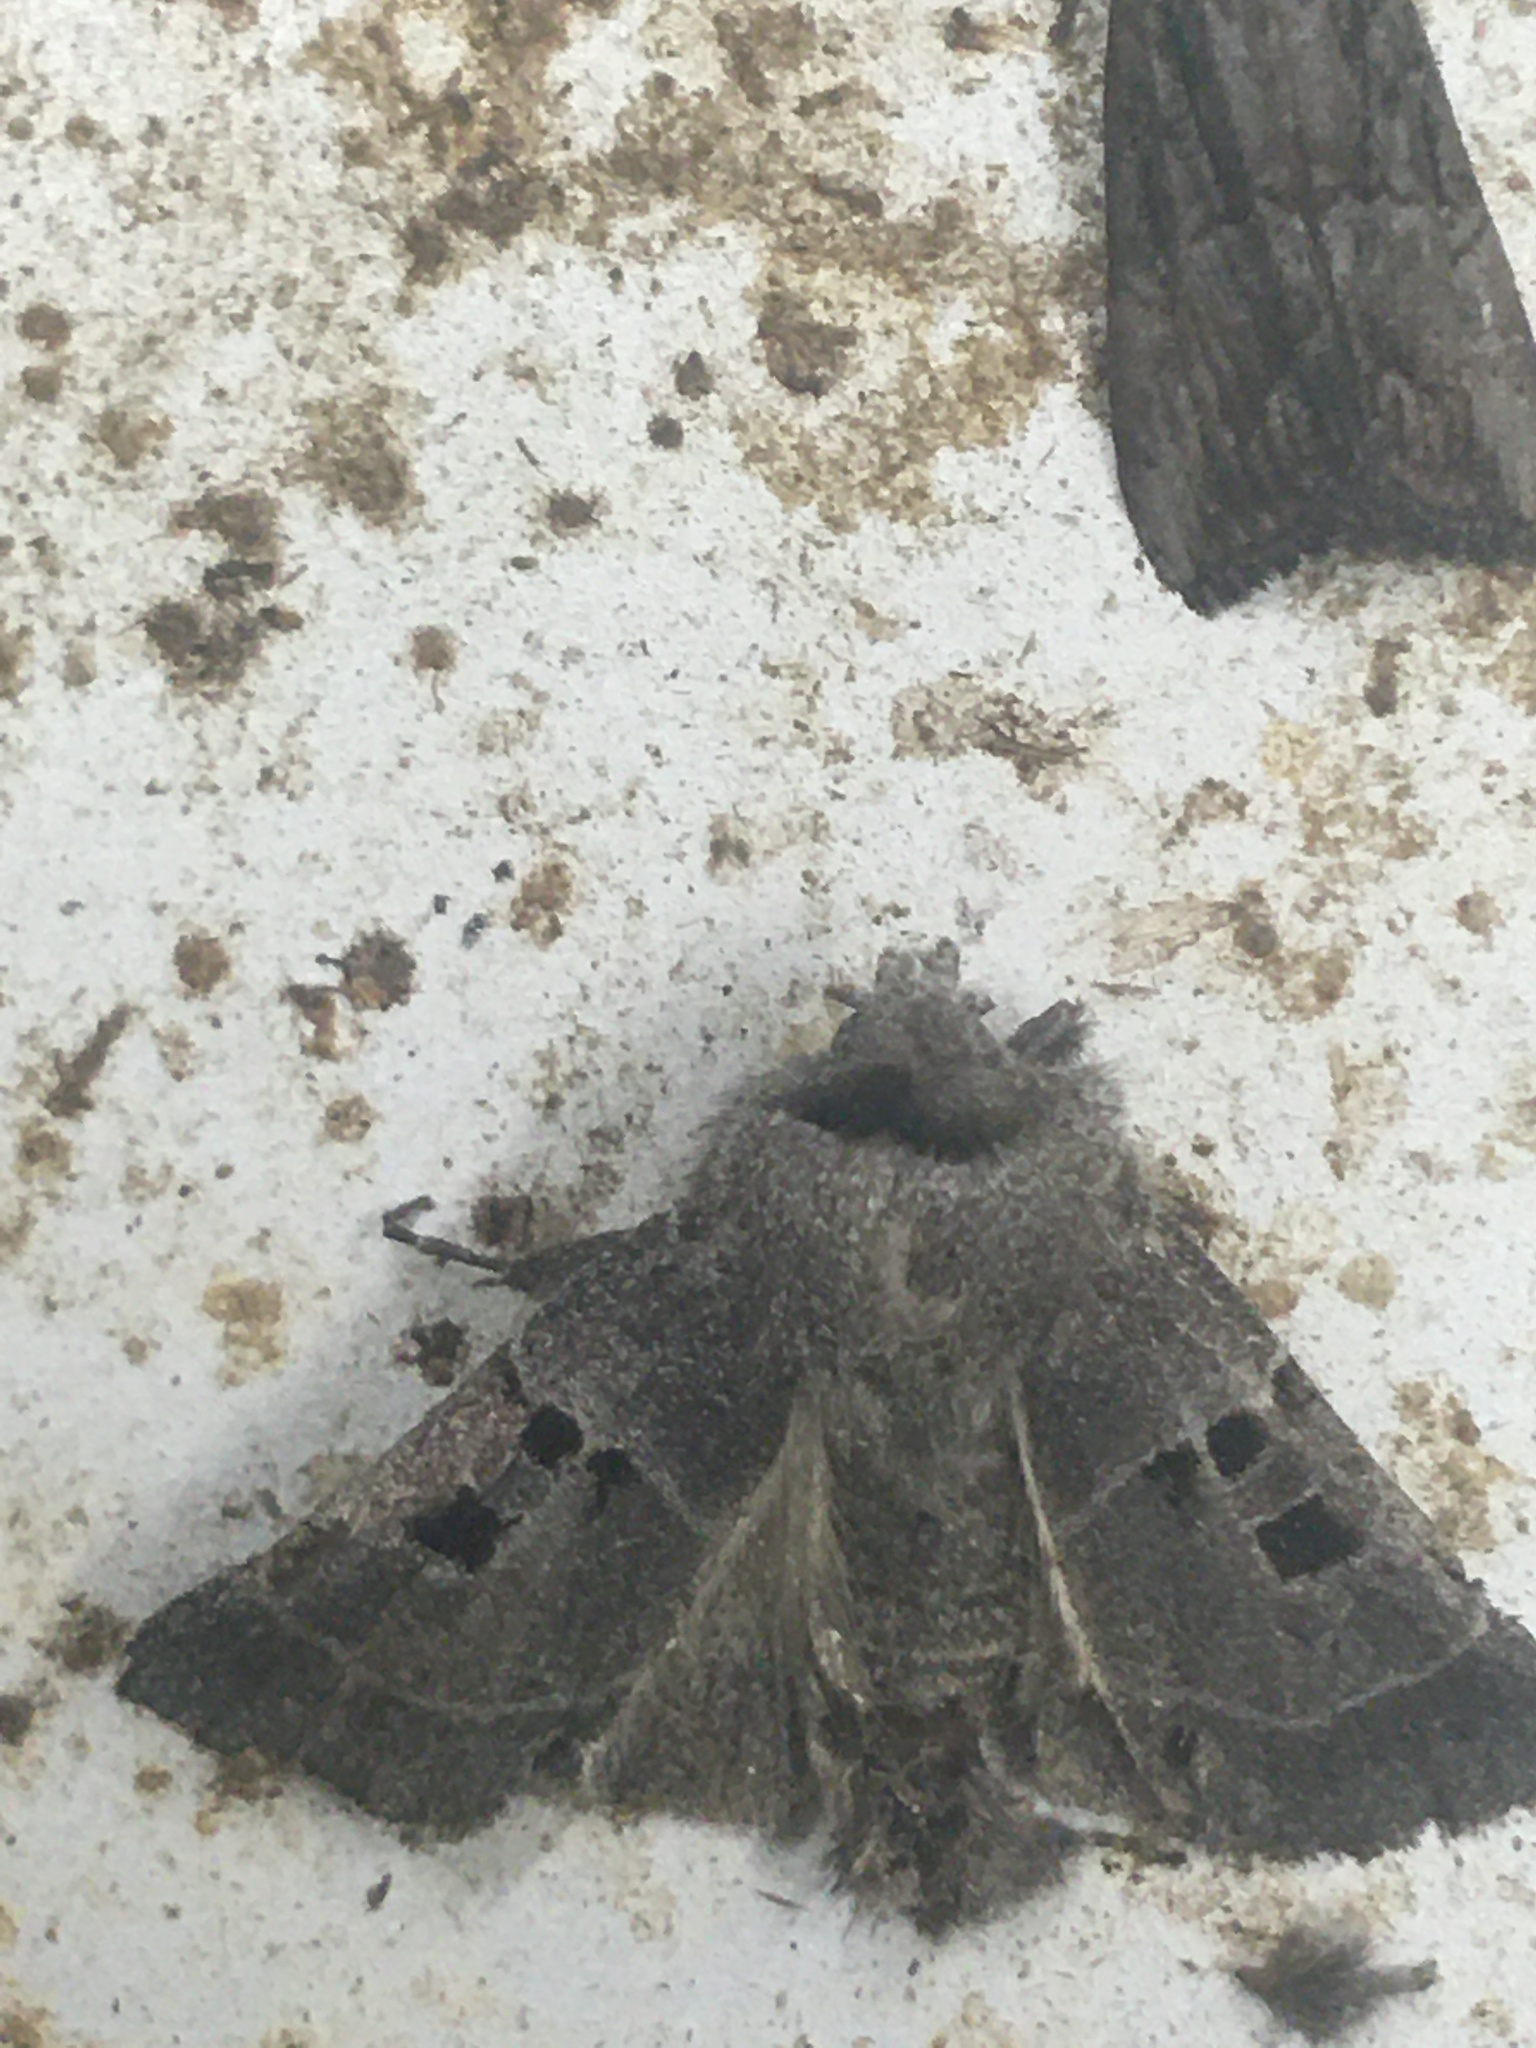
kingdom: Animalia
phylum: Arthropoda
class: Insecta
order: Lepidoptera
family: Noctuidae
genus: Agnorisma
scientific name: Agnorisma bollii
